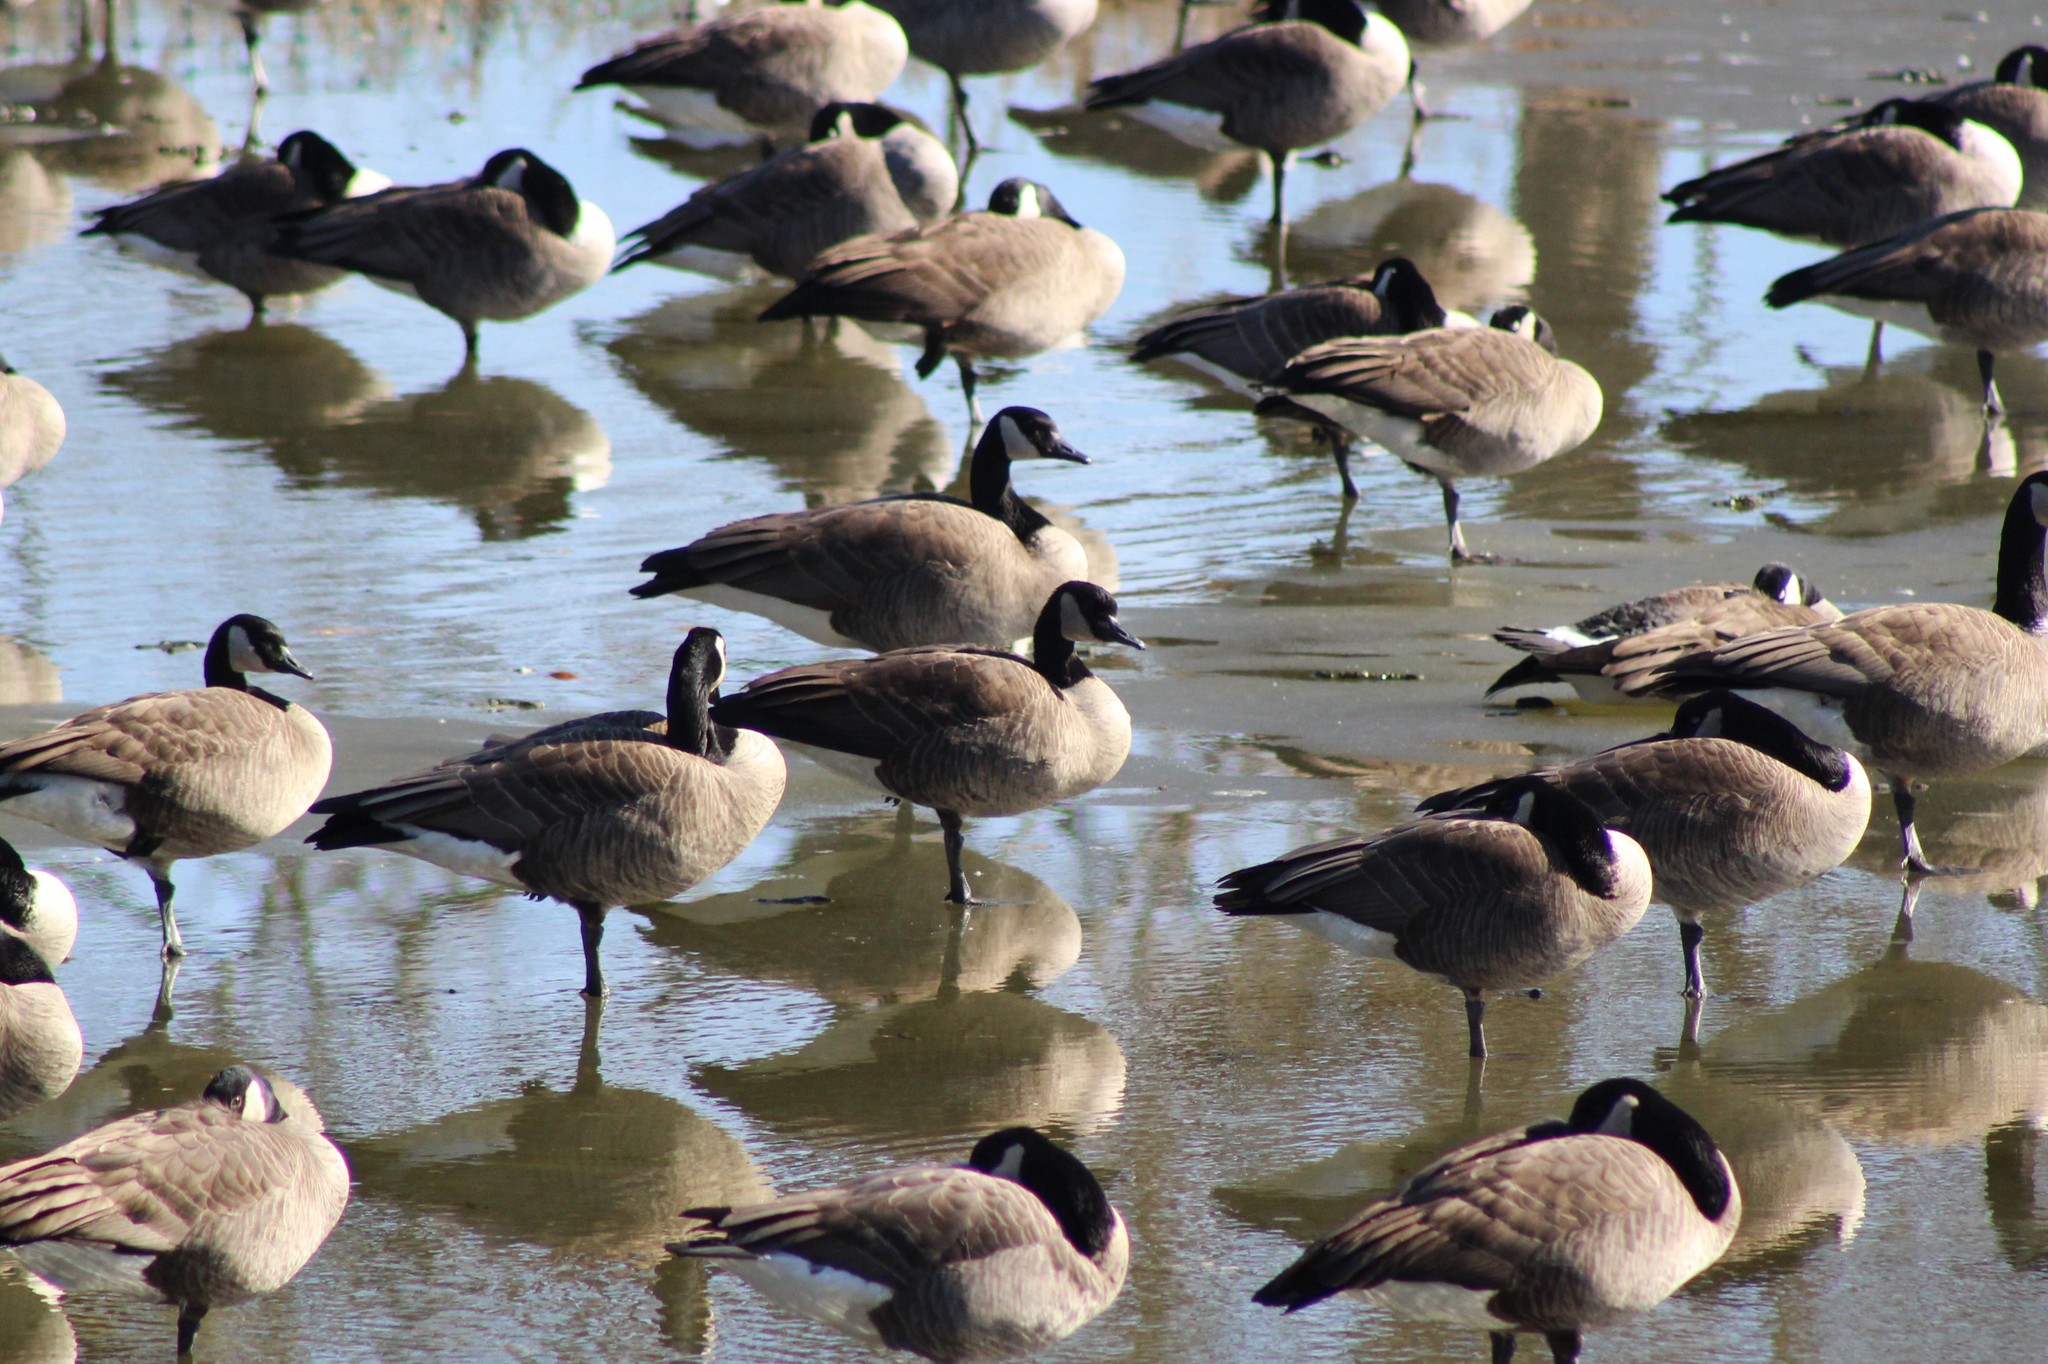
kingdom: Animalia
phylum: Chordata
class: Aves
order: Anseriformes
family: Anatidae
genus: Branta
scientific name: Branta canadensis
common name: Canada goose
